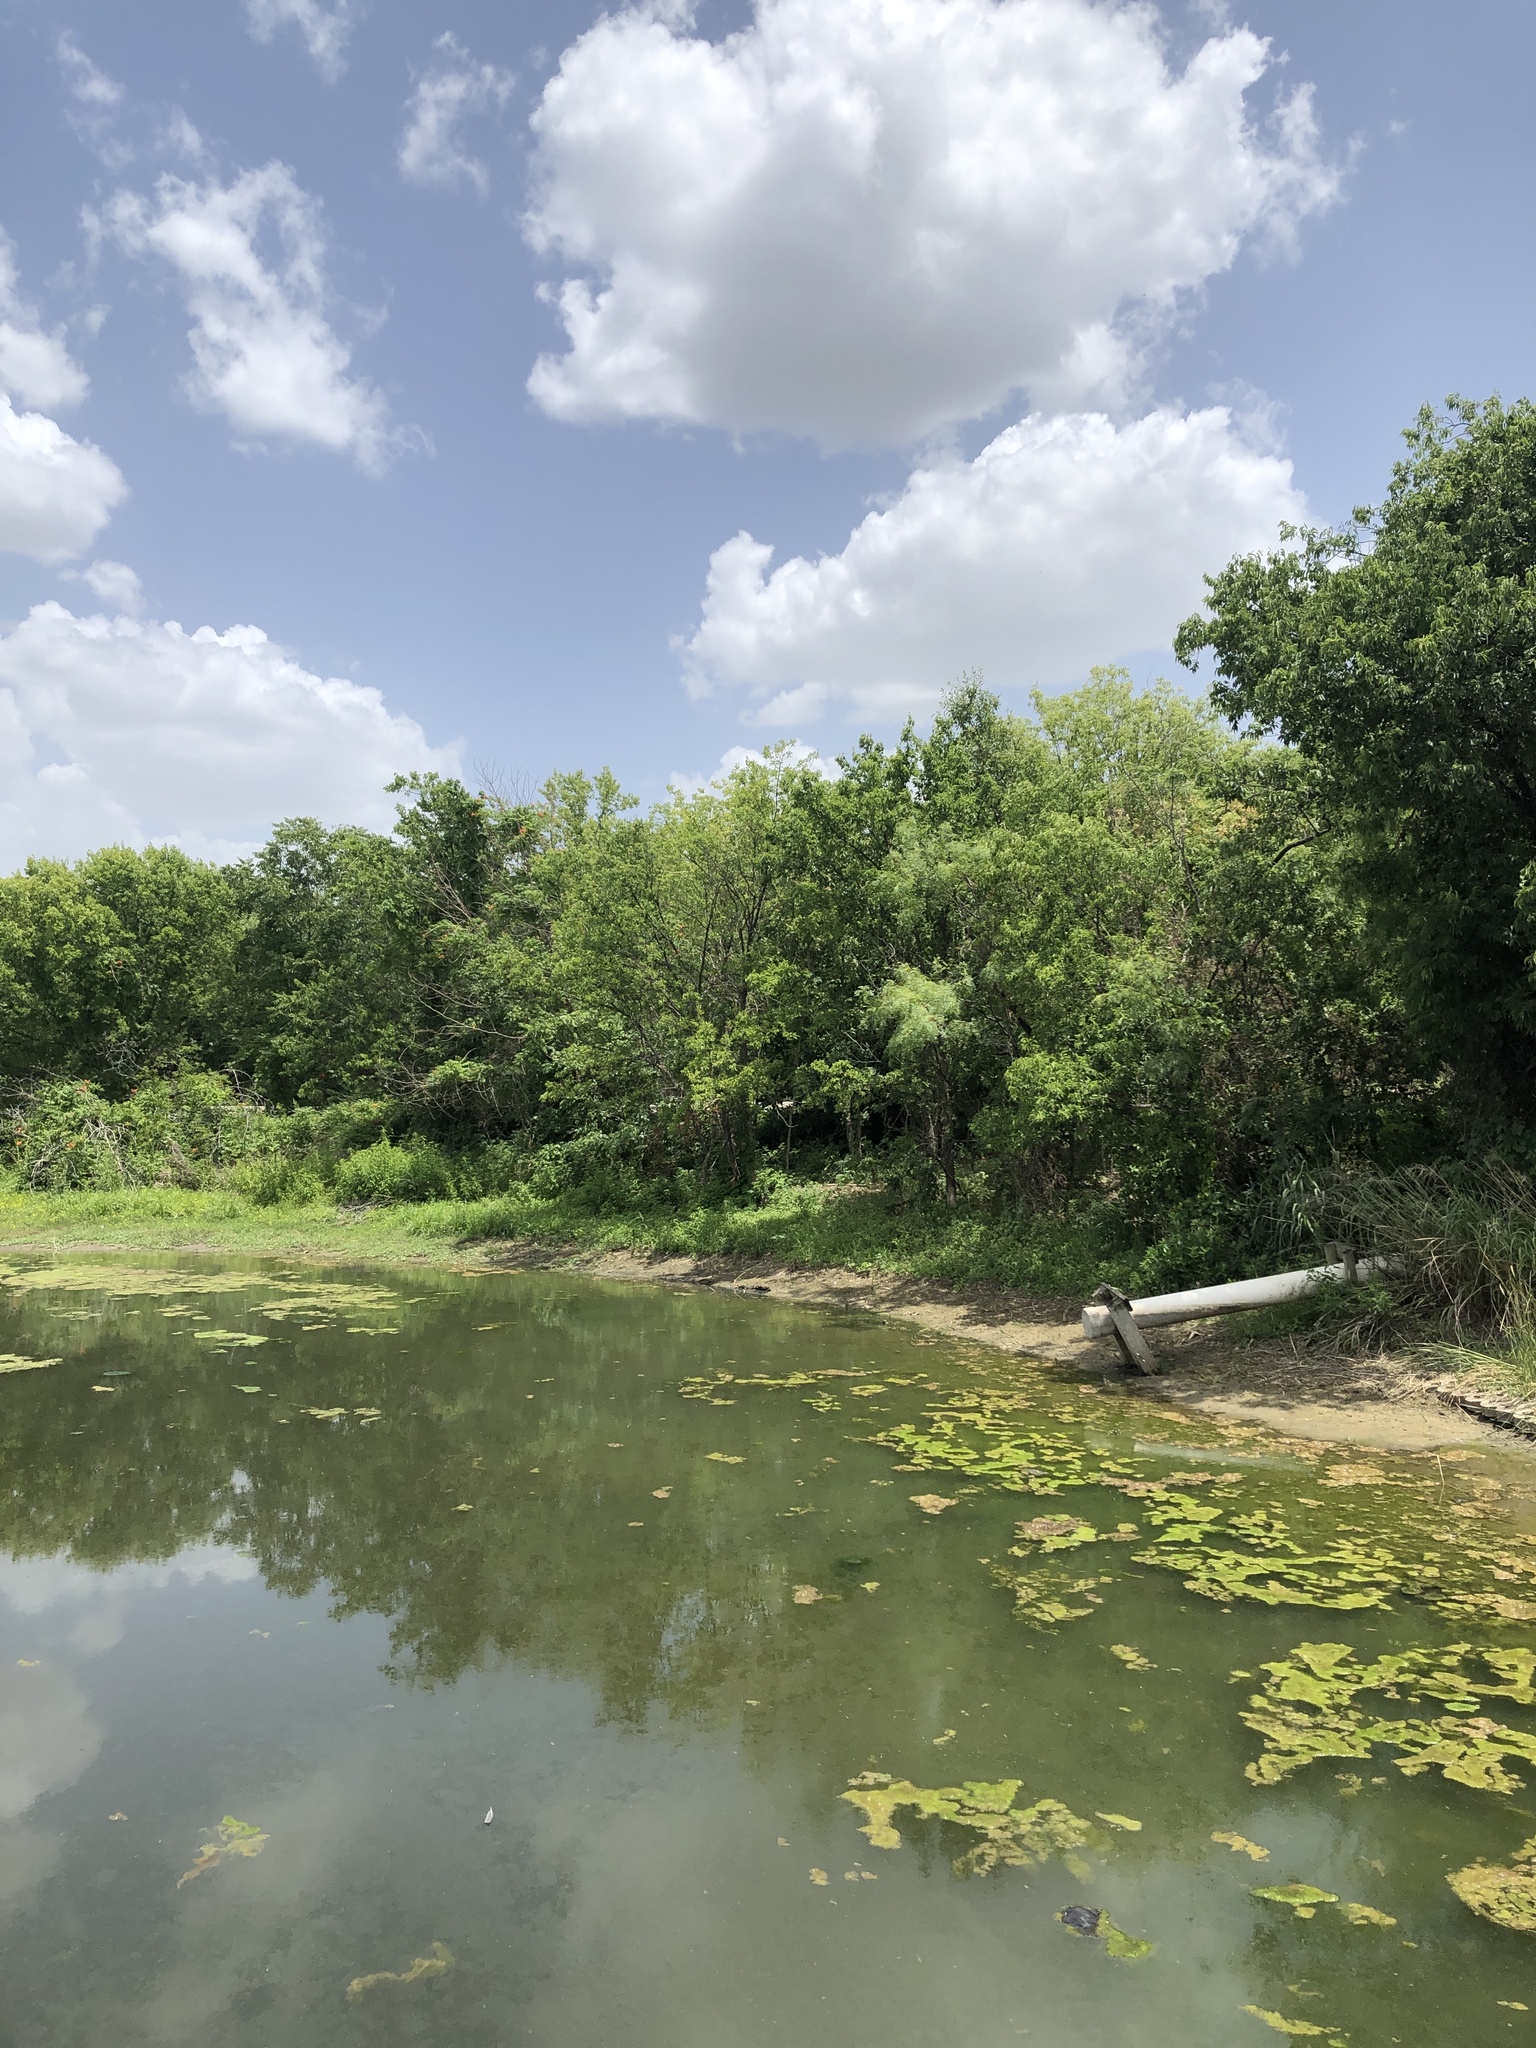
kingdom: Animalia
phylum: Chordata
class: Aves
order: Passeriformes
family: Cardinalidae
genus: Passerina
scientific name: Passerina ciris
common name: Painted bunting
